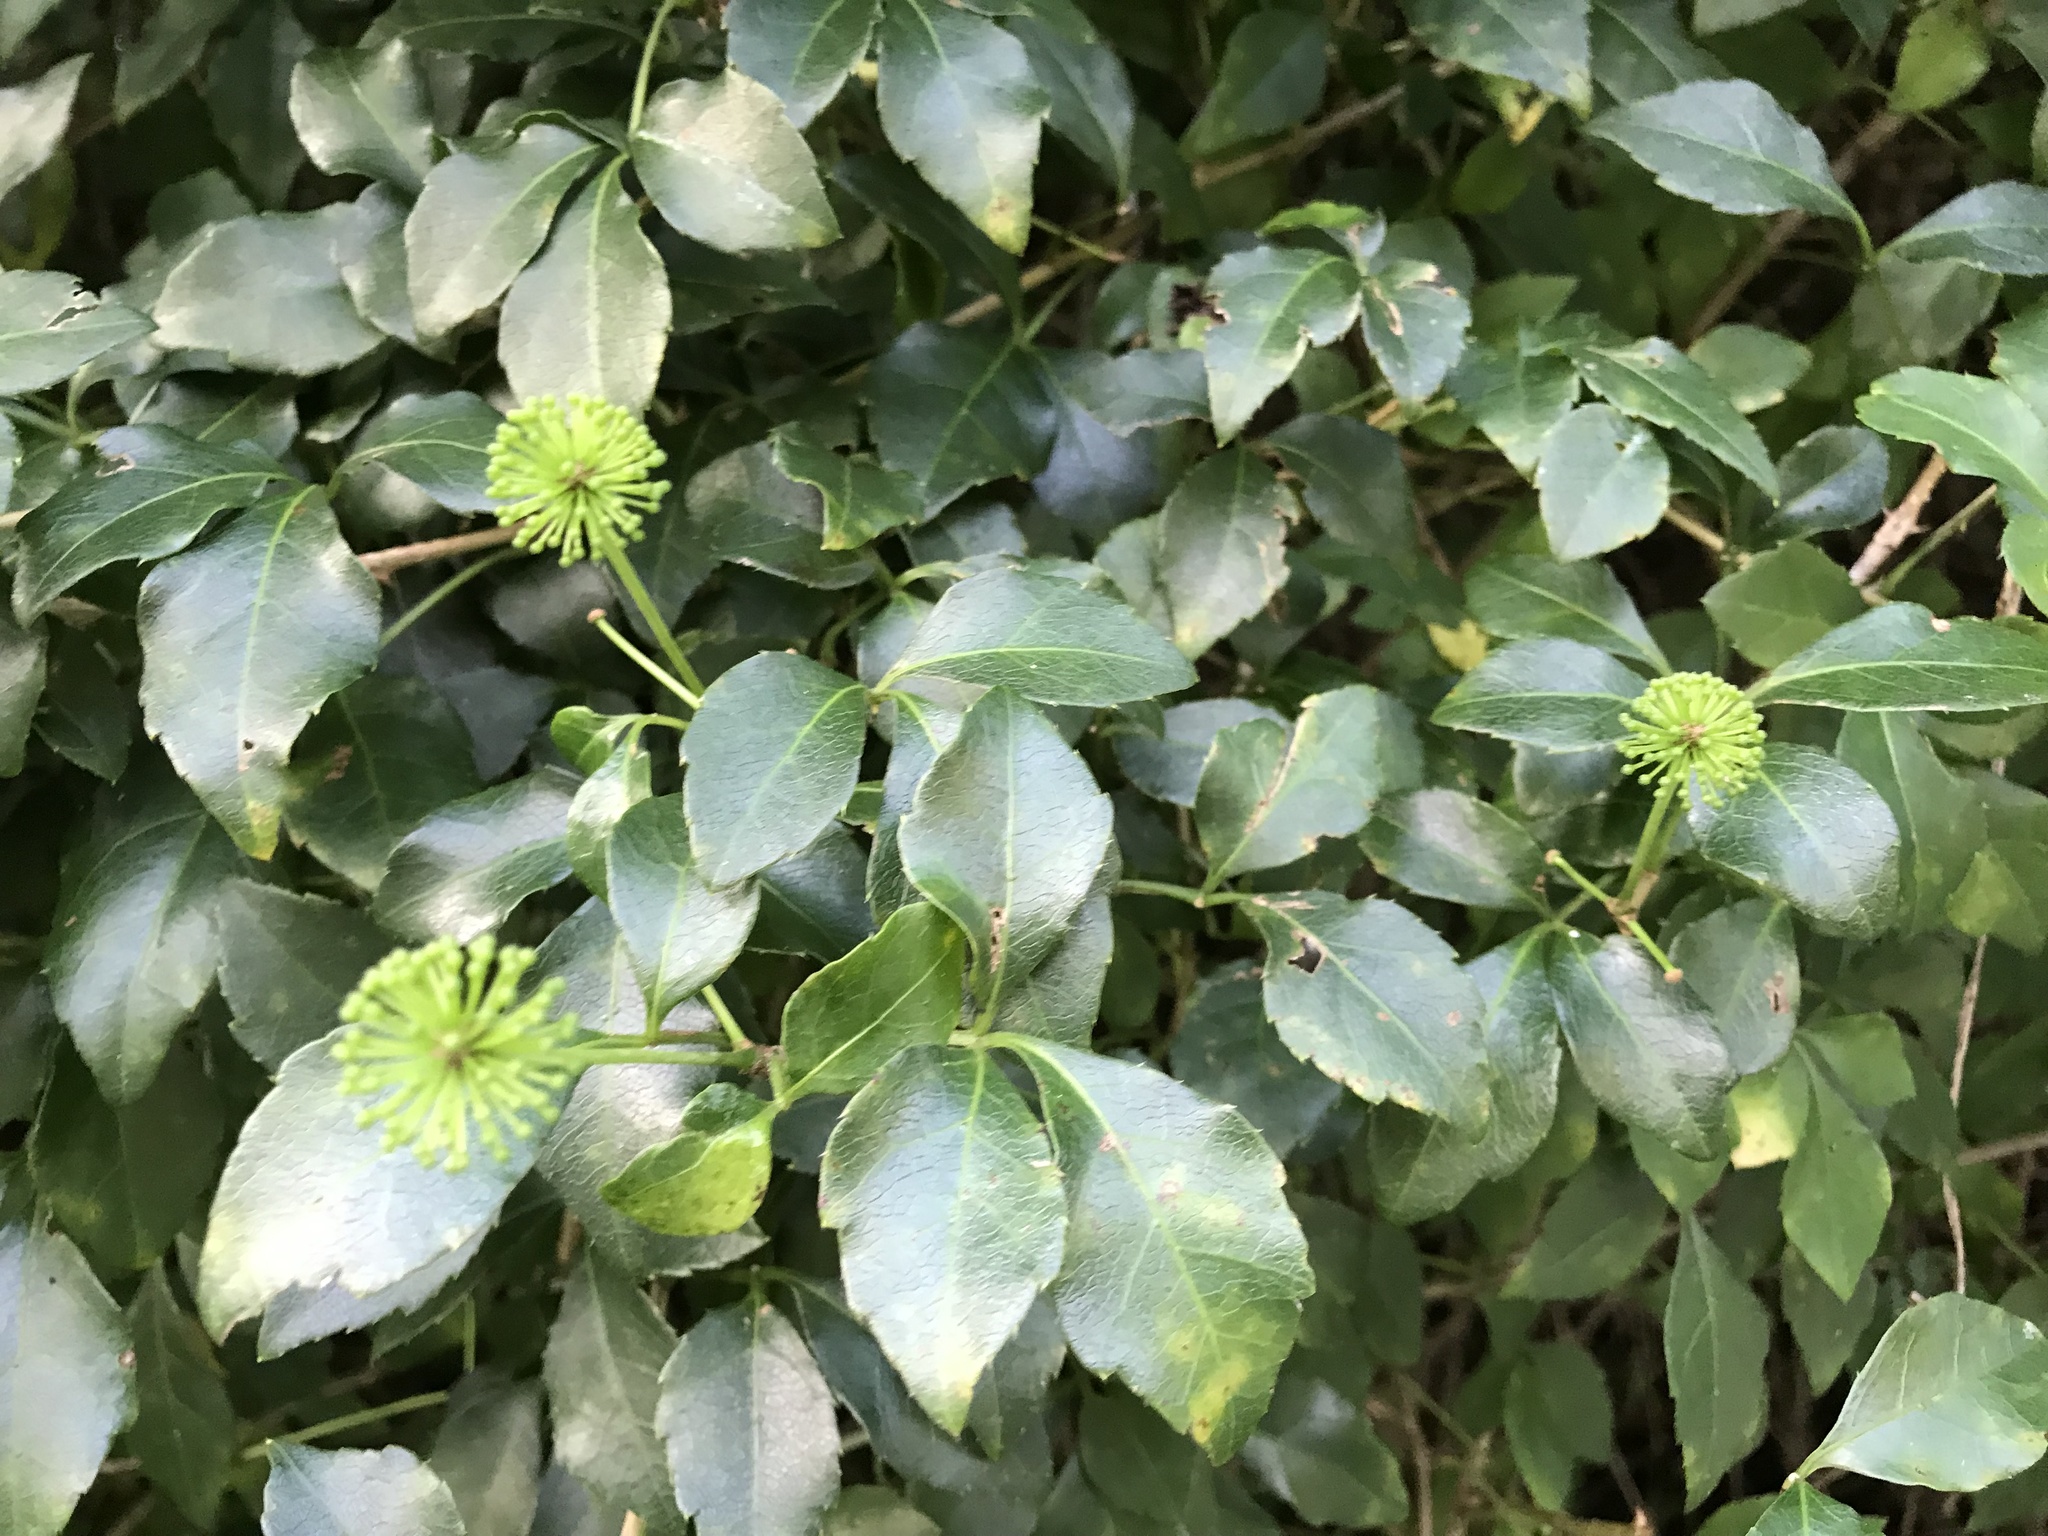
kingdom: Plantae
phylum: Tracheophyta
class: Magnoliopsida
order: Apiales
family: Araliaceae
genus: Eleutherococcus
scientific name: Eleutherococcus trifoliatus
